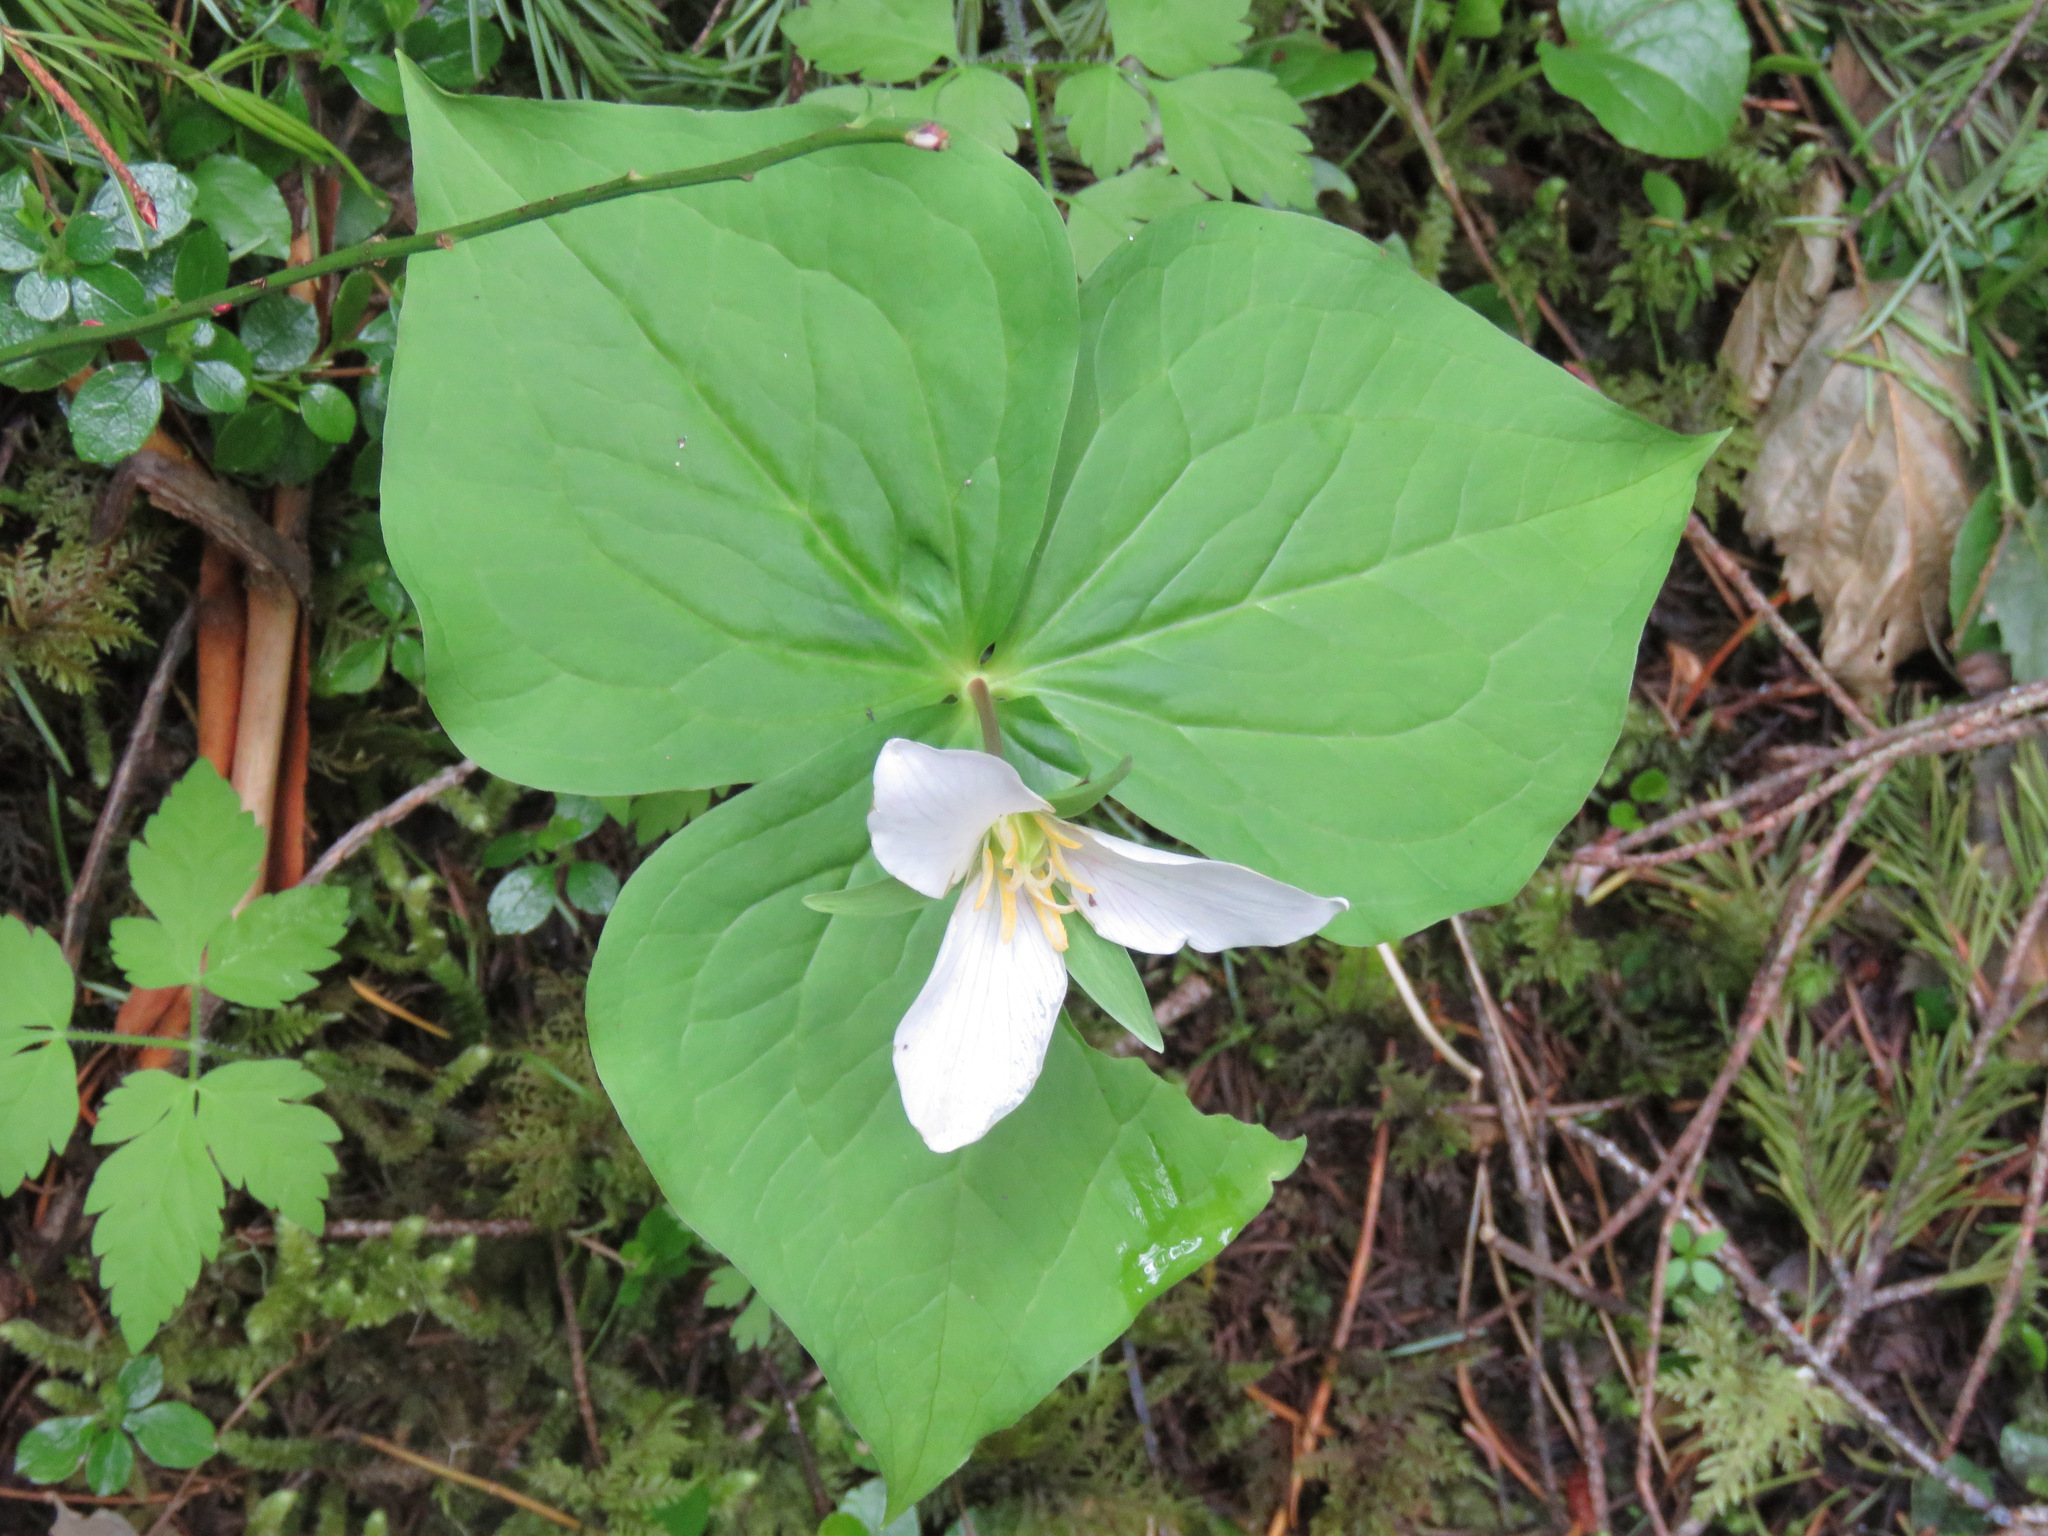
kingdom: Plantae
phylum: Tracheophyta
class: Liliopsida
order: Liliales
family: Melanthiaceae
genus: Trillium
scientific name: Trillium ovatum
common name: Pacific trillium
